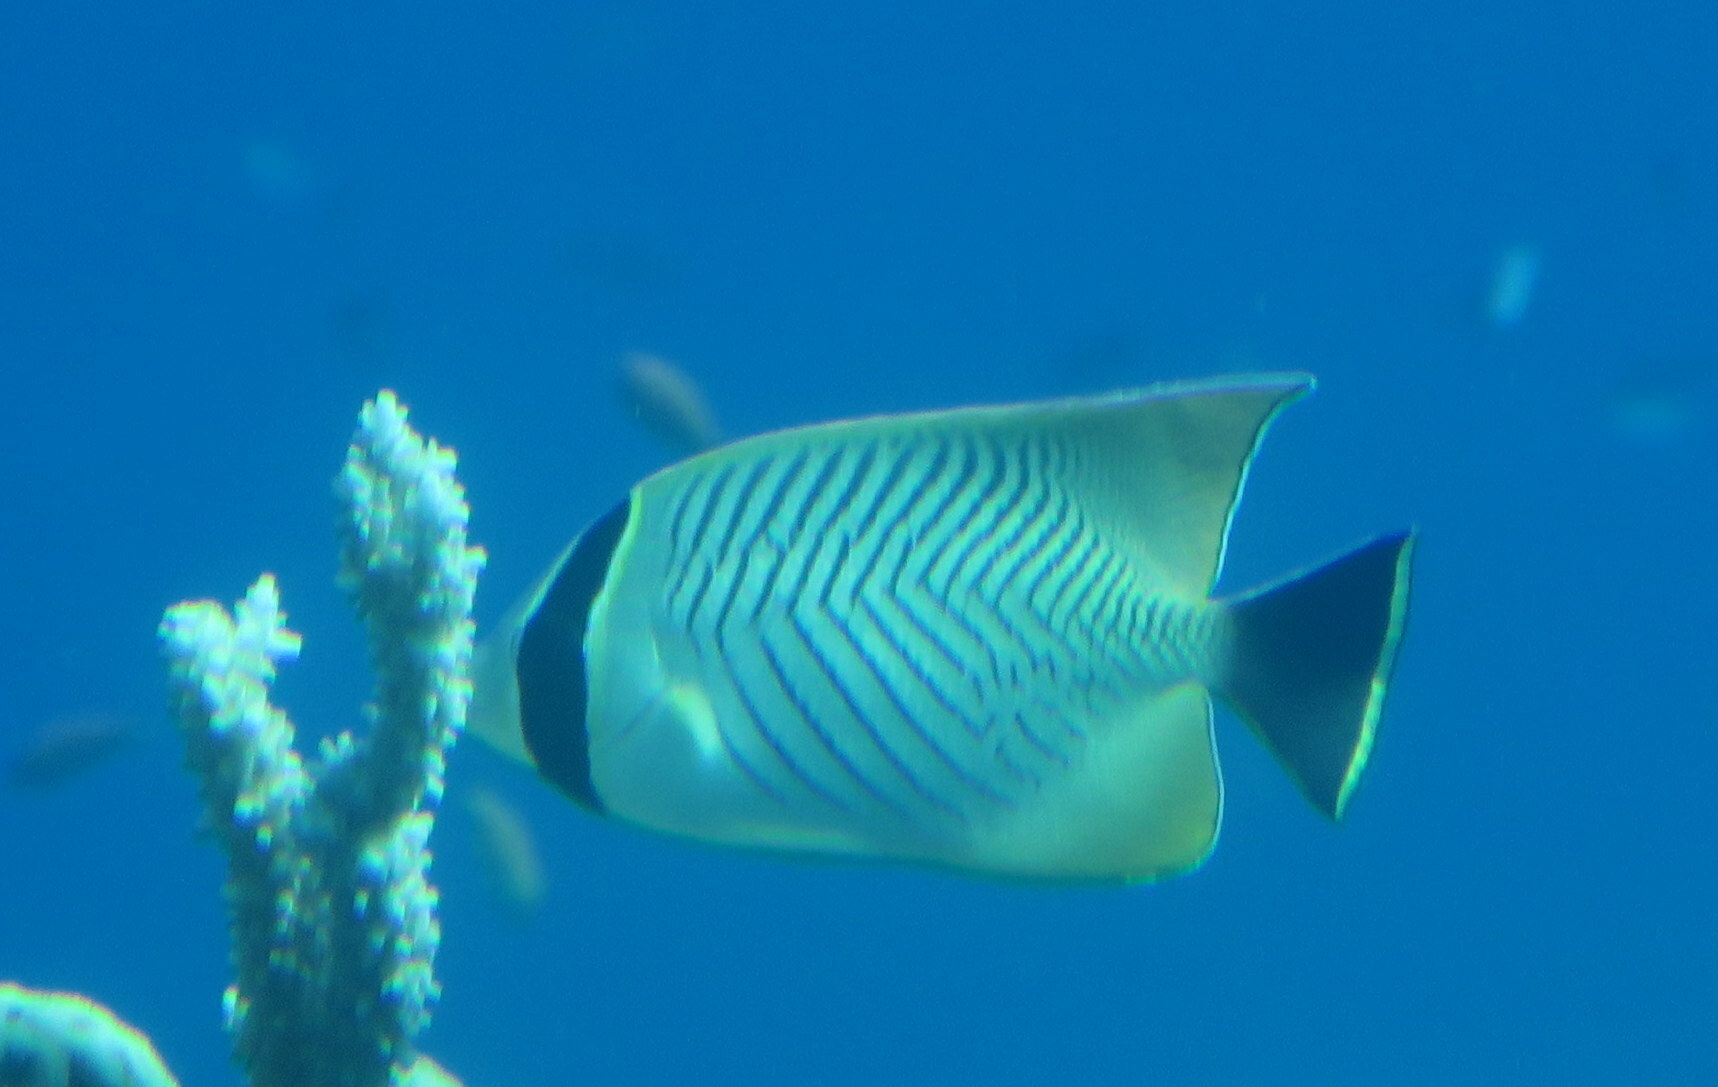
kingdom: Animalia
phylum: Chordata
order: Perciformes
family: Chaetodontidae
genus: Chaetodon
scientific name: Chaetodon trifascialis
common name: Chevroned butterflyfish
